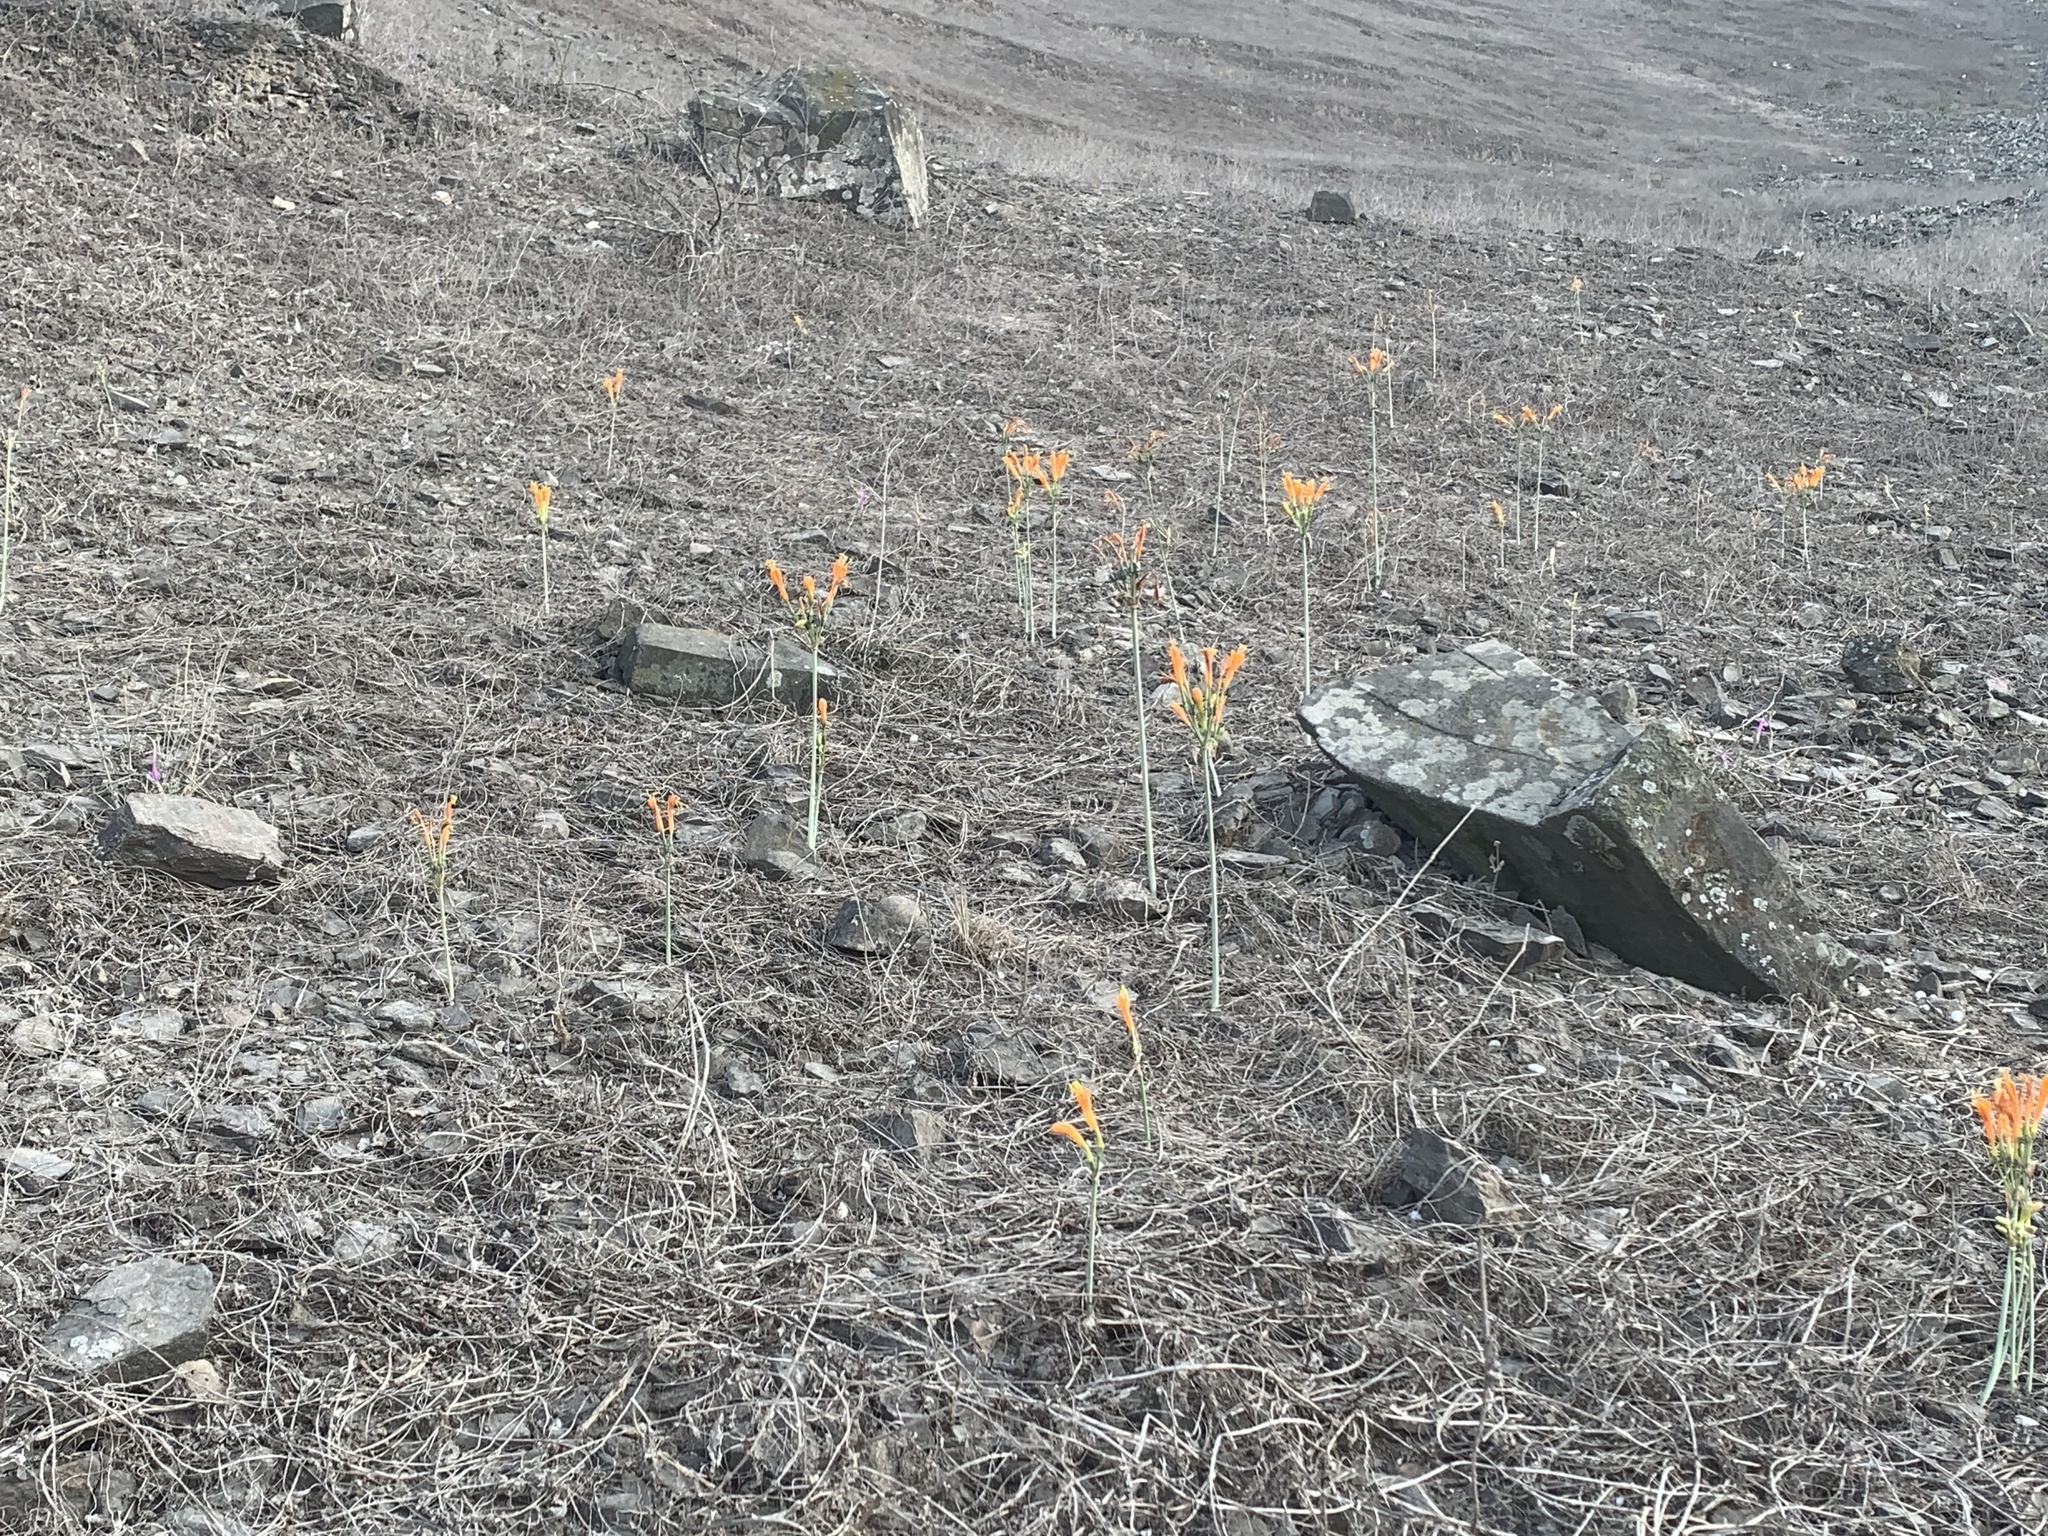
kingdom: Plantae
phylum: Tracheophyta
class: Liliopsida
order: Asparagales
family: Amaryllidaceae
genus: Stenomesson
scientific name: Stenomesson flavum
